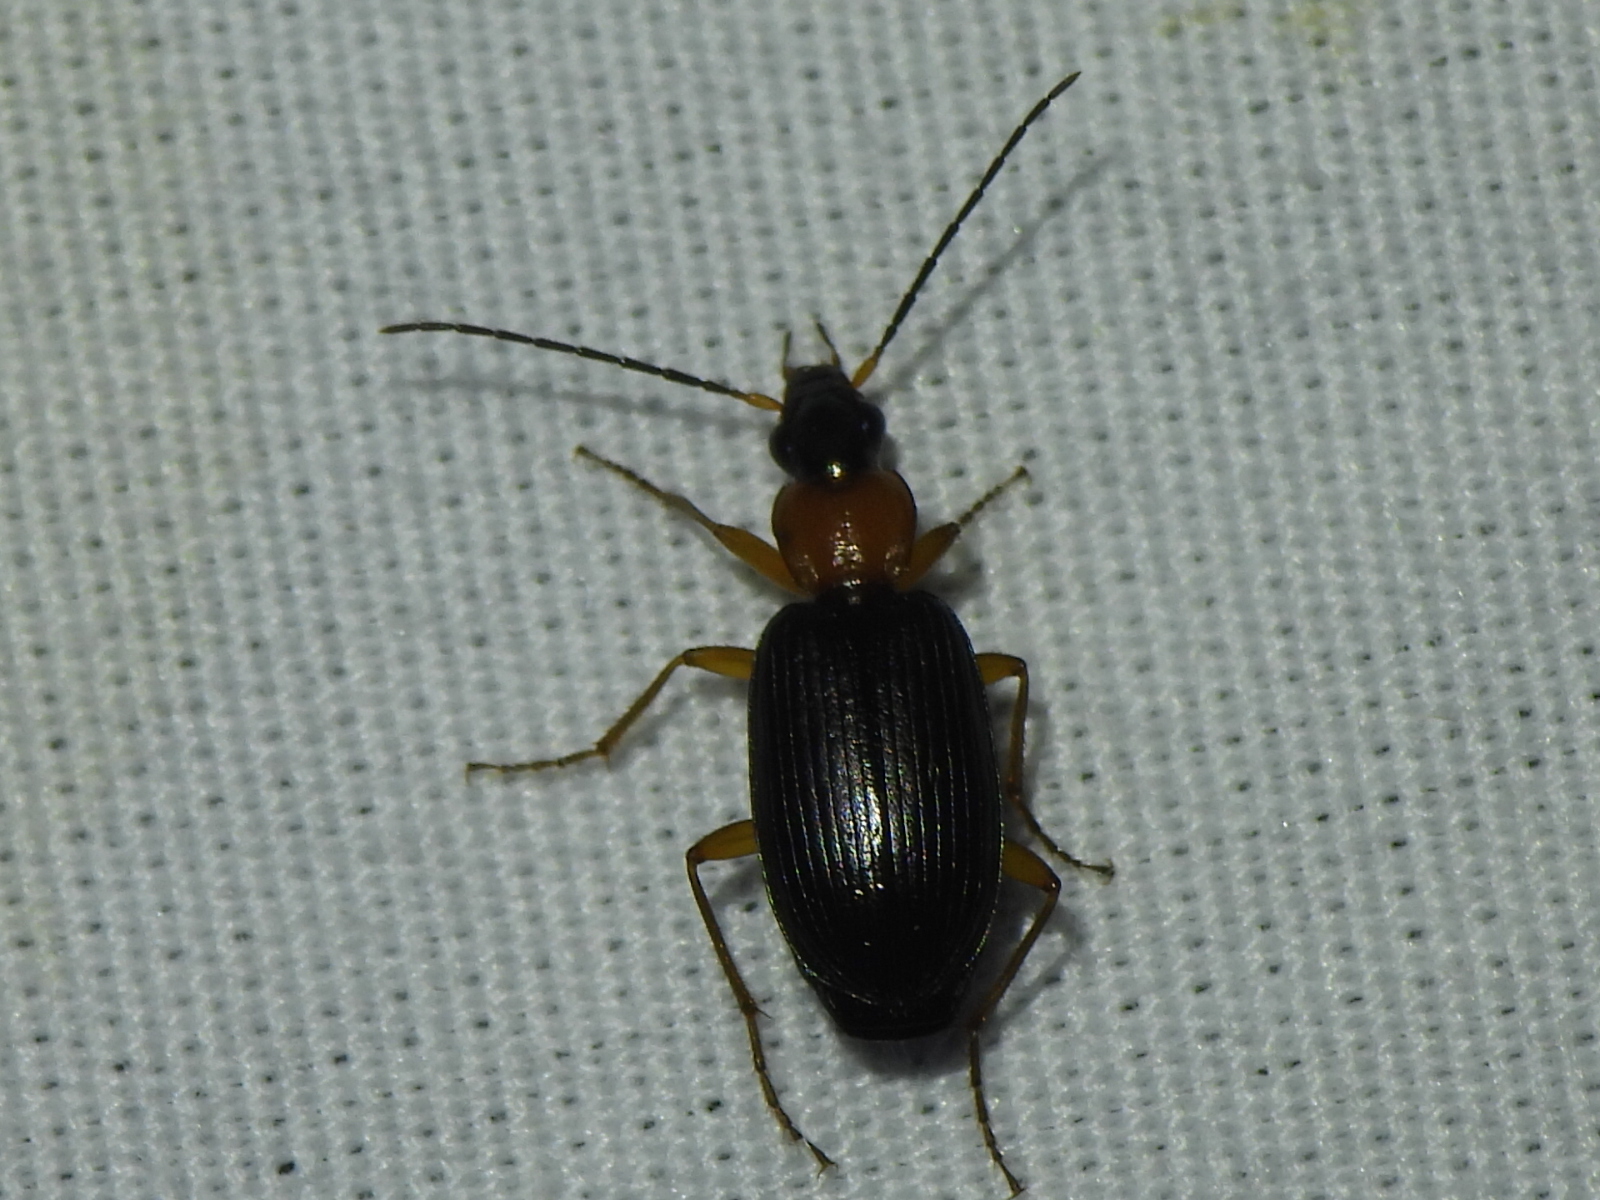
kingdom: Animalia
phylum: Arthropoda
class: Insecta
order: Coleoptera
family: Carabidae
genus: Agonum
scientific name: Agonum decorum
